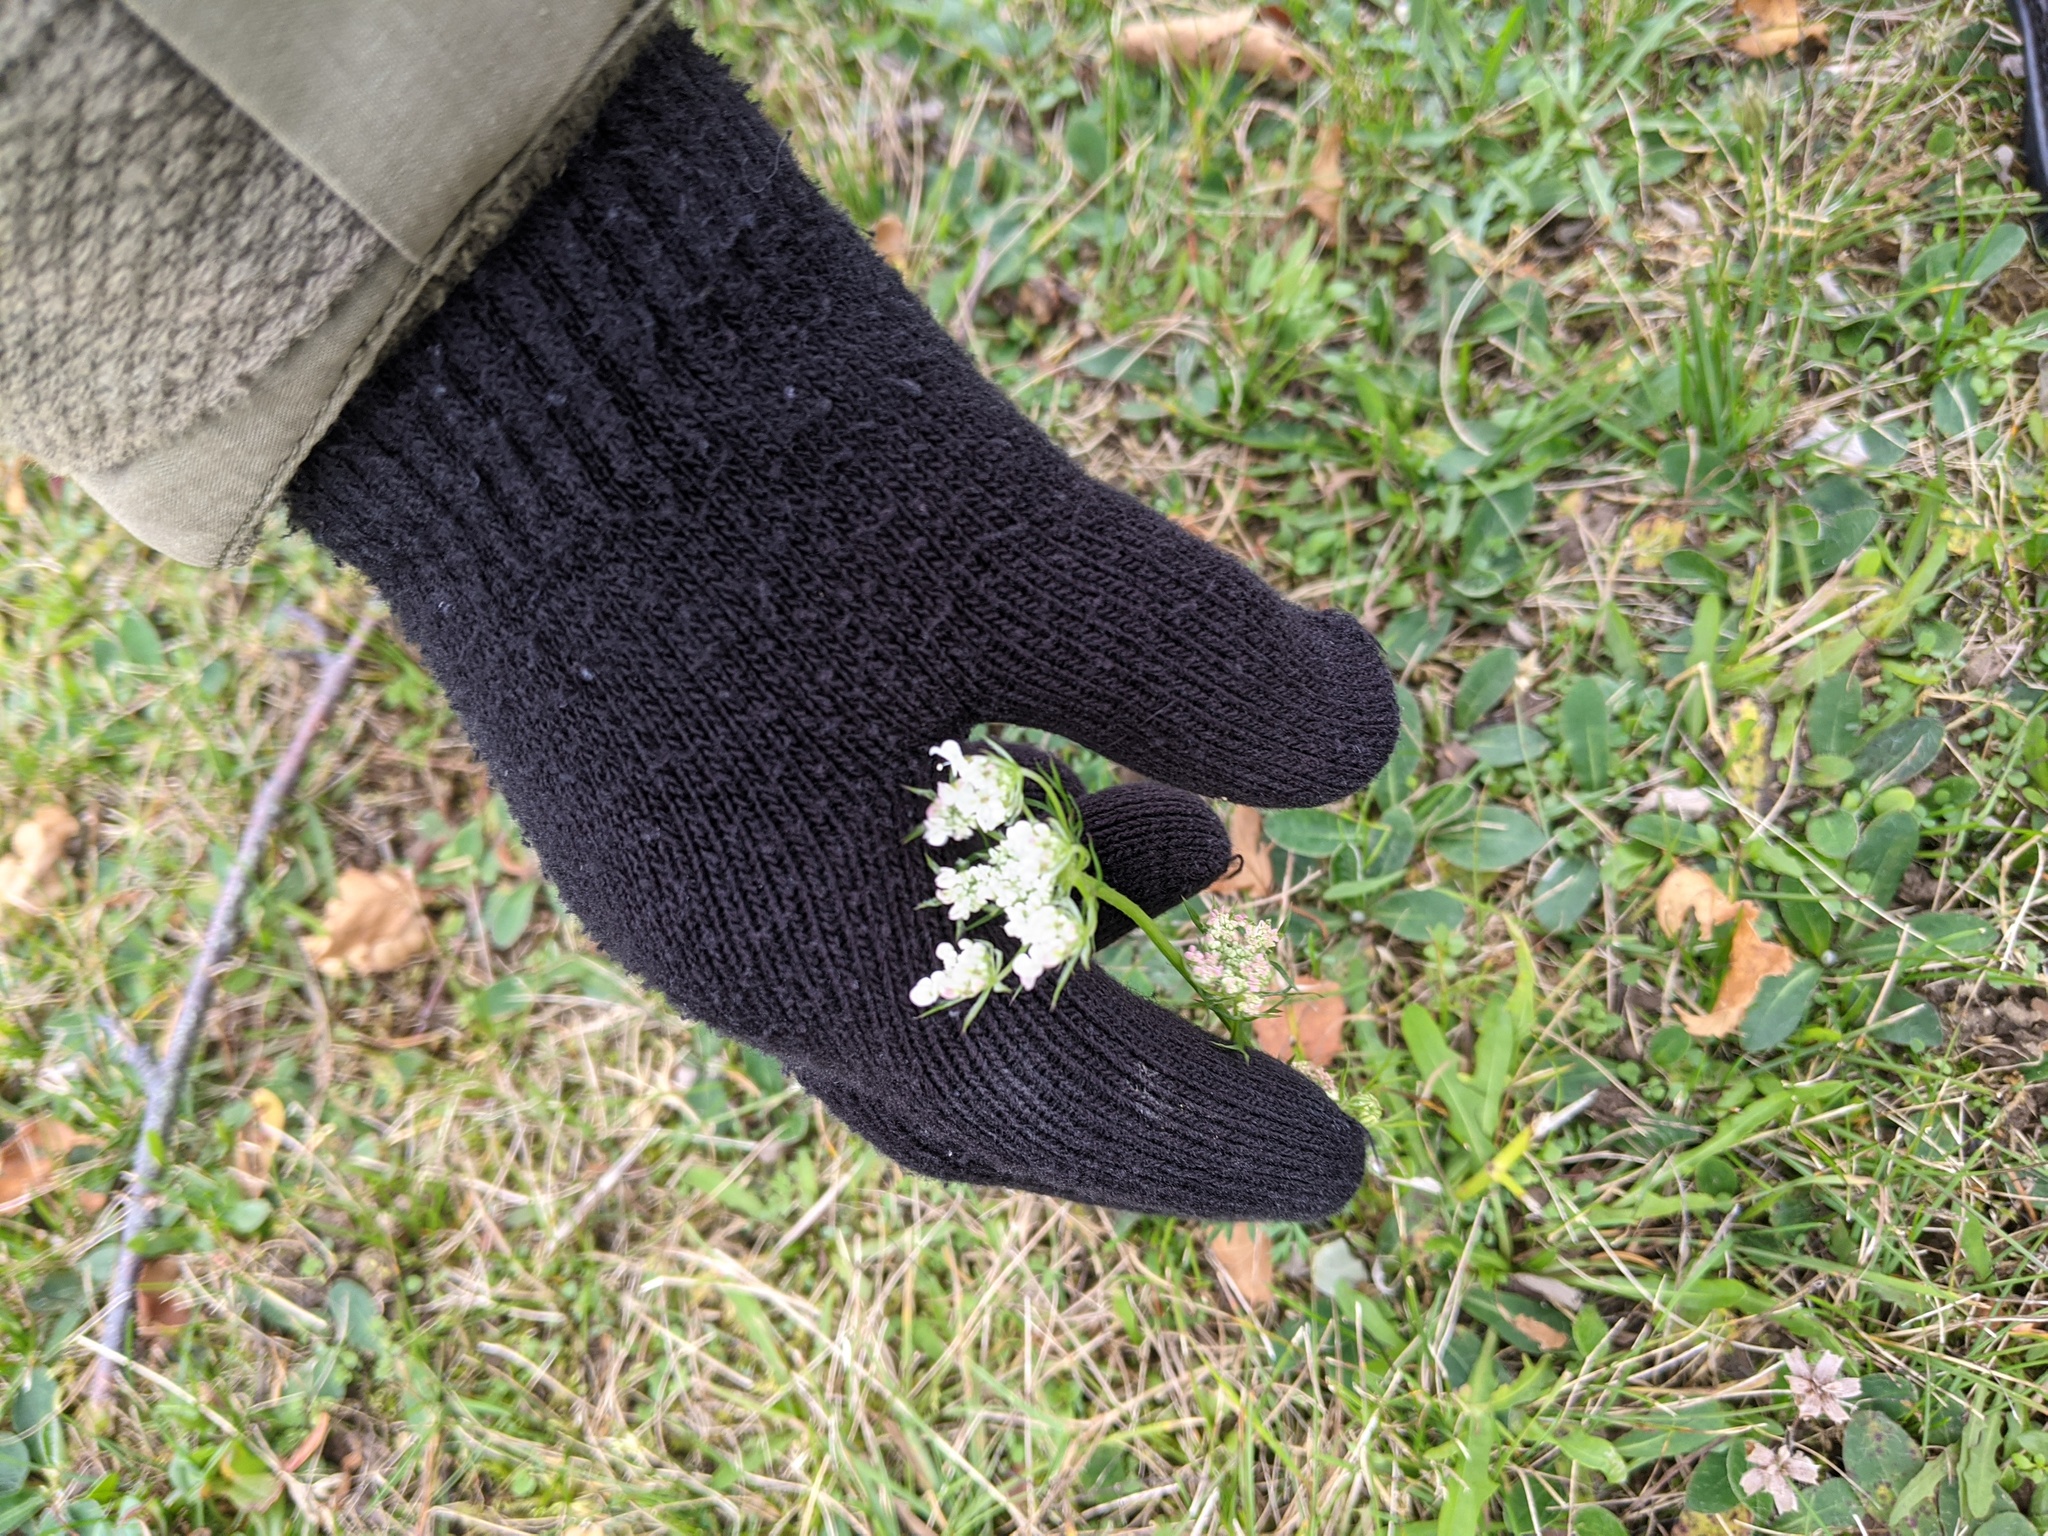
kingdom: Plantae
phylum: Tracheophyta
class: Magnoliopsida
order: Apiales
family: Apiaceae
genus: Daucus
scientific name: Daucus carota
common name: Wild carrot
